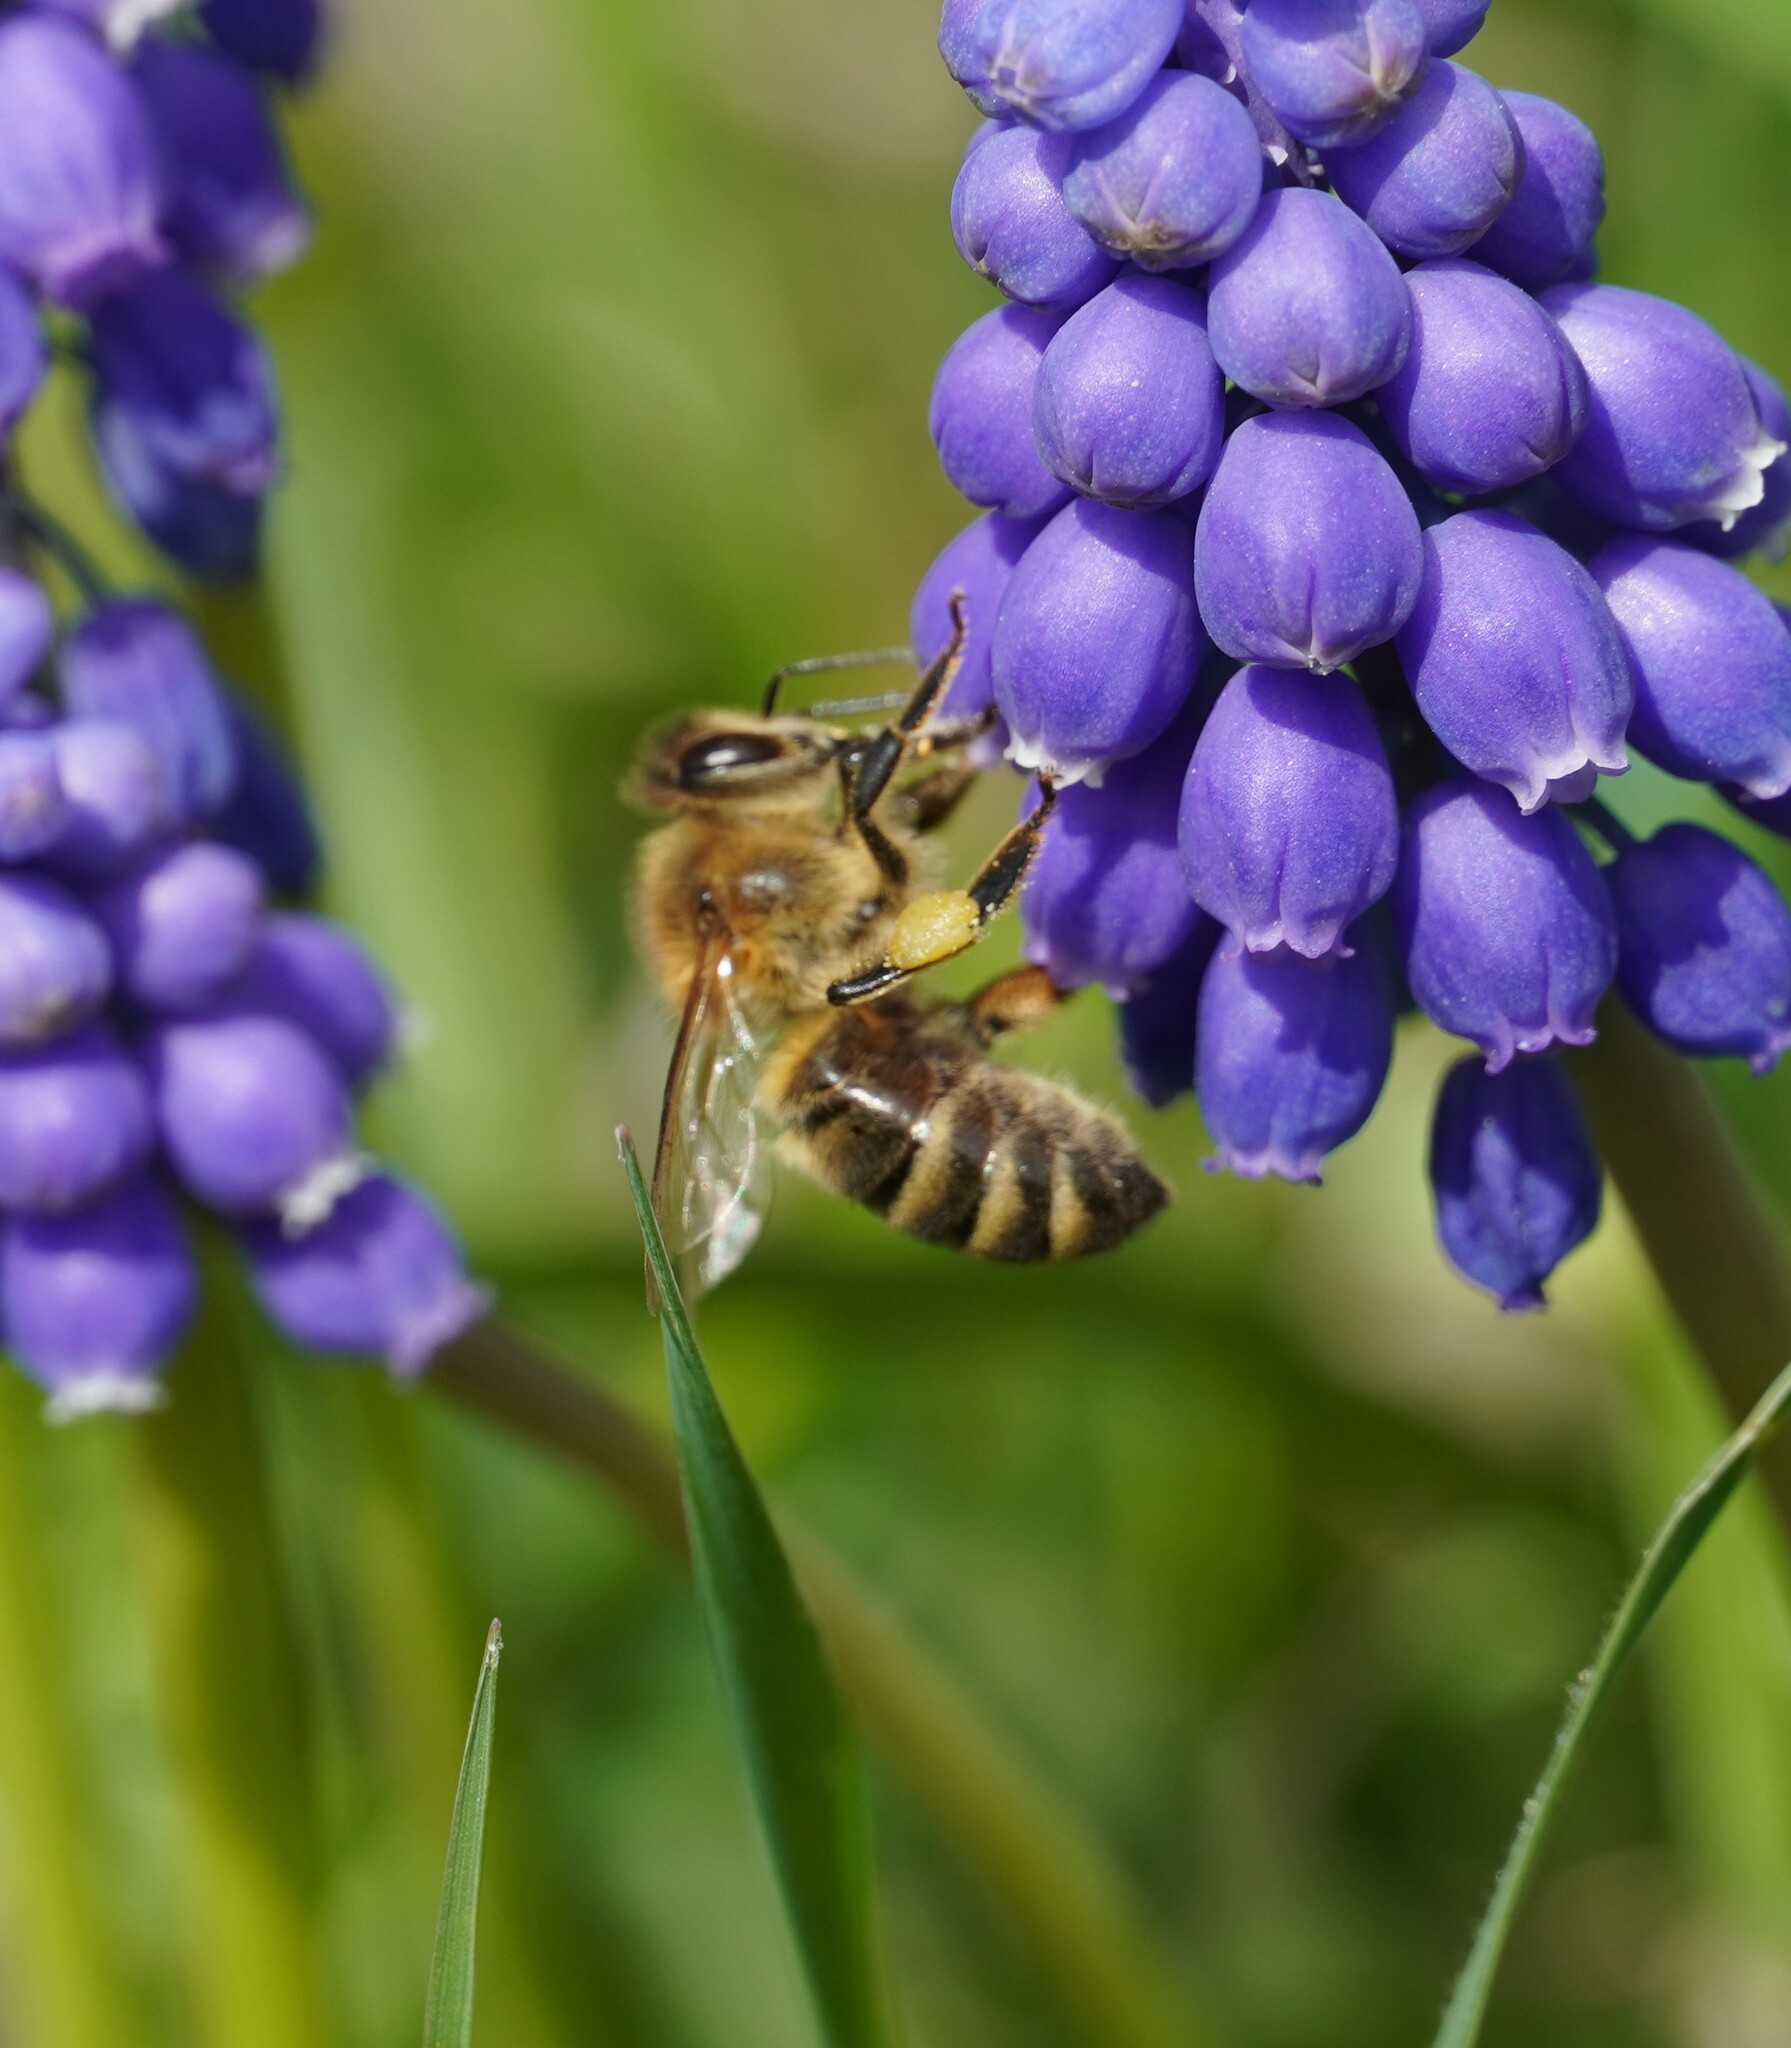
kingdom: Animalia
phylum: Arthropoda
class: Insecta
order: Hymenoptera
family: Apidae
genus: Apis
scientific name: Apis mellifera
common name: Honey bee
